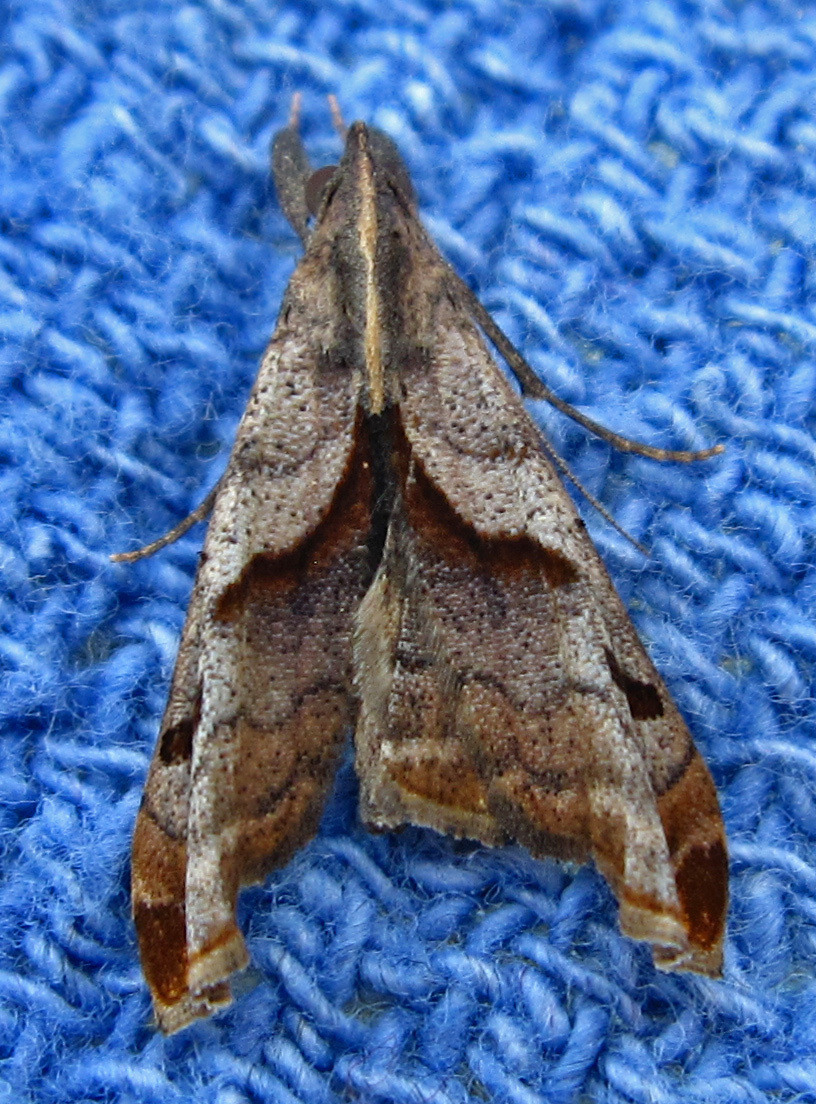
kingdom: Animalia
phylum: Arthropoda
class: Insecta
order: Lepidoptera
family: Erebidae
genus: Palthis
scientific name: Palthis angulalis
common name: Dark-spotted palthis moth
